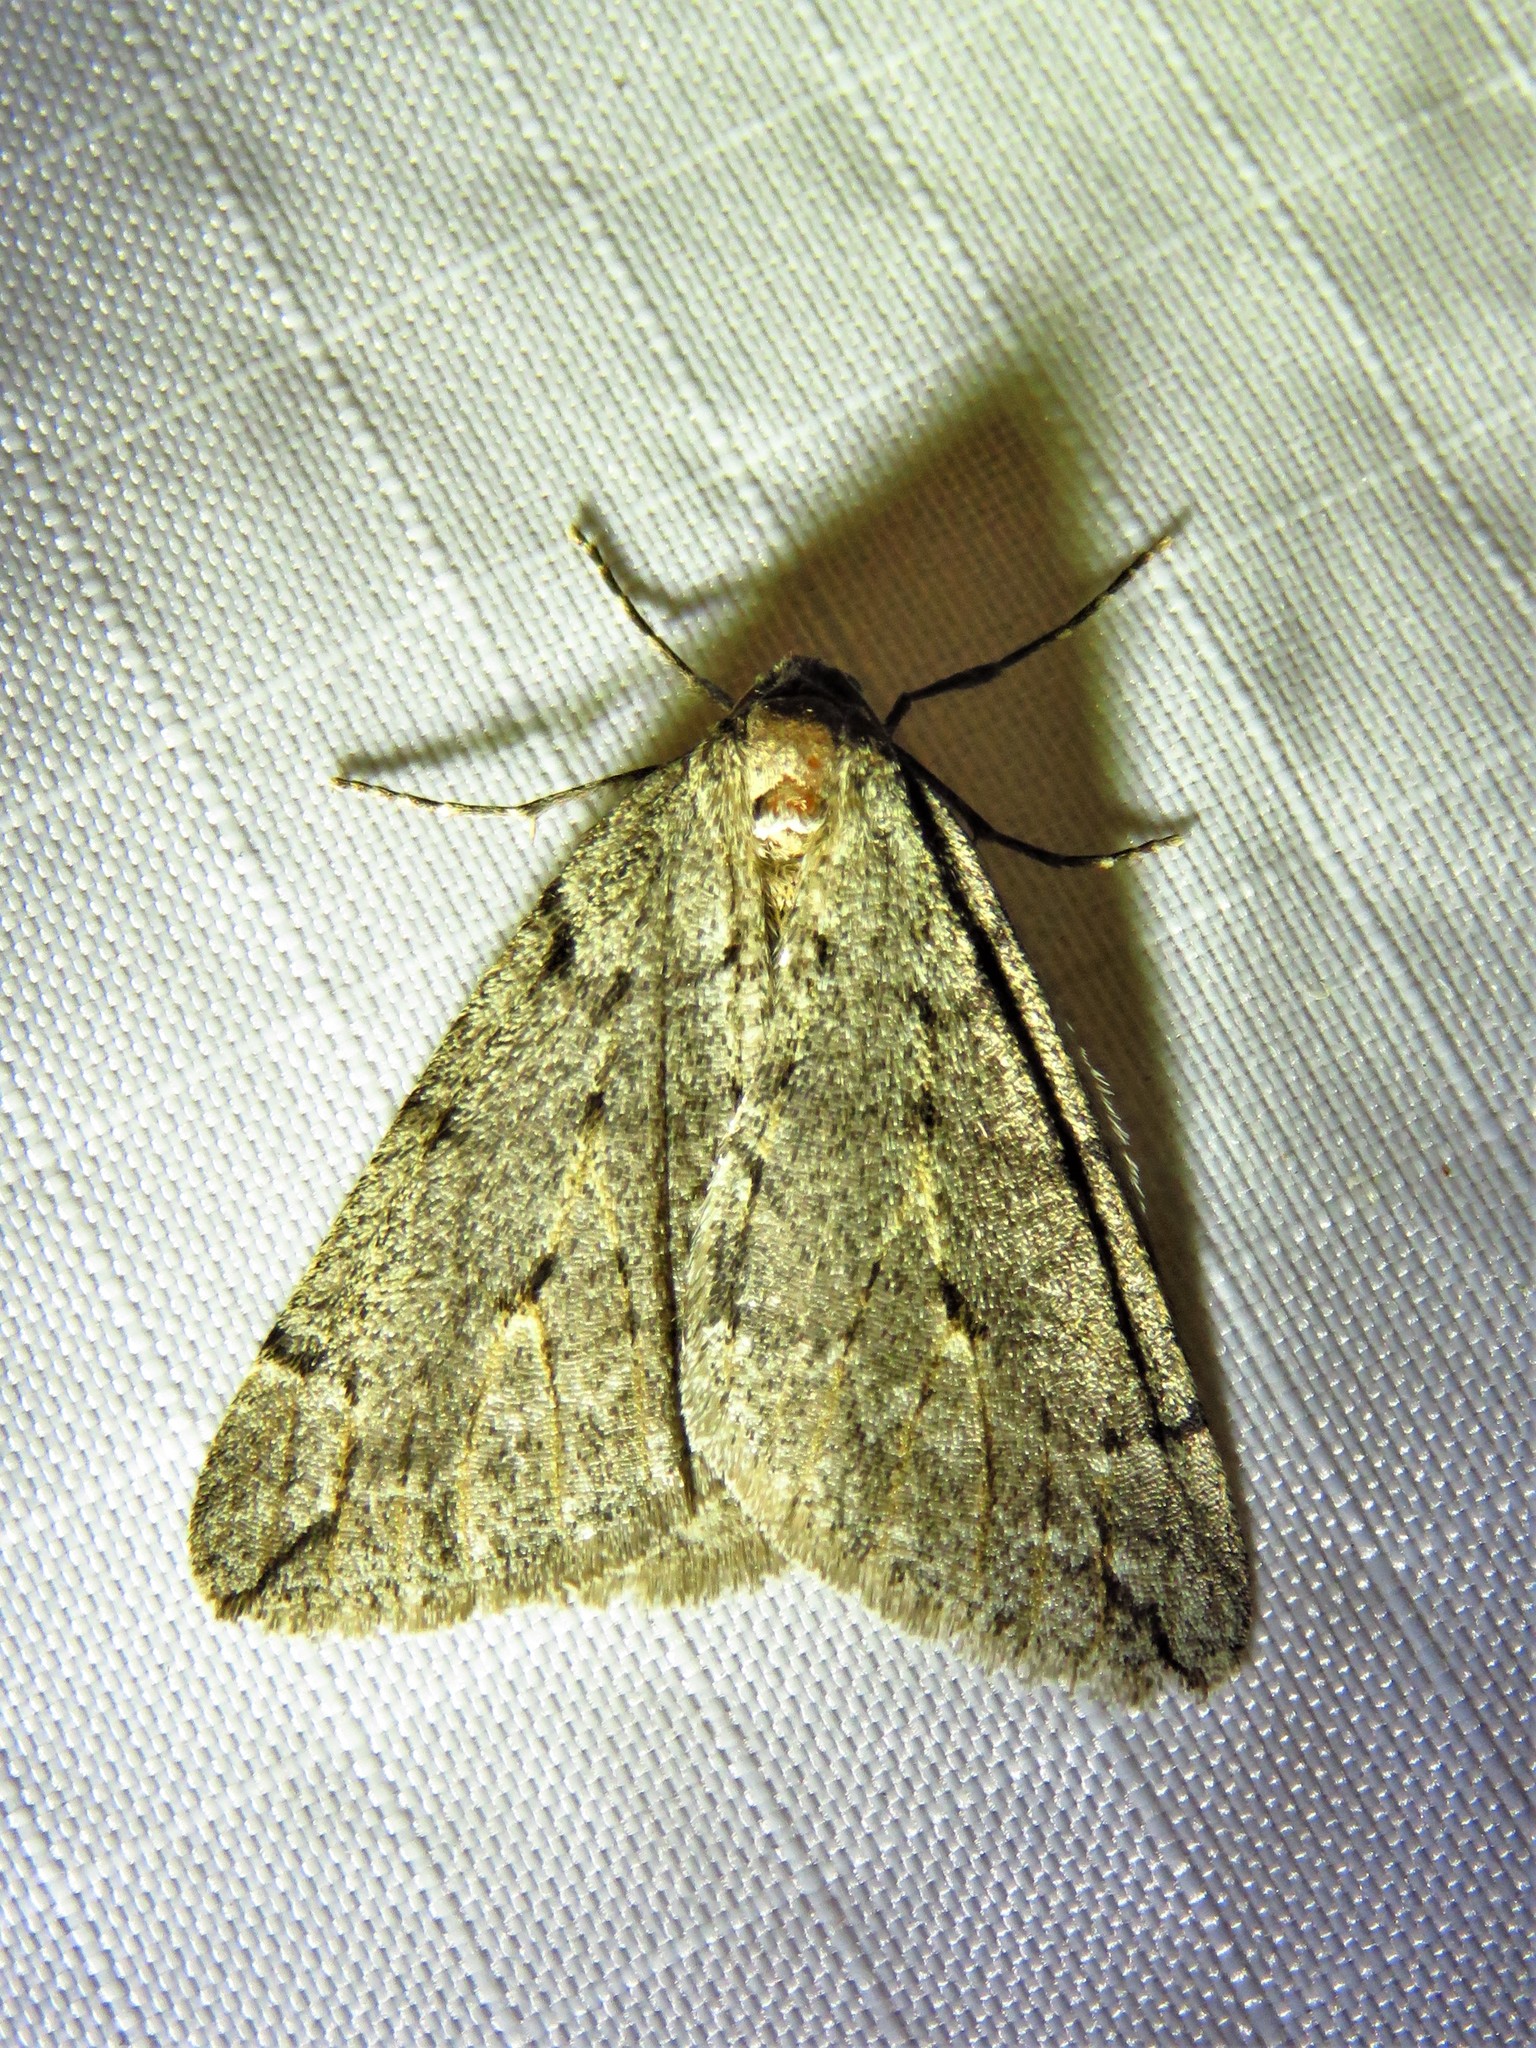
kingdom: Animalia
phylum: Arthropoda
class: Insecta
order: Lepidoptera
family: Geometridae
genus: Paleacrita
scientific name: Paleacrita vernata
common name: Spring cankerworm
